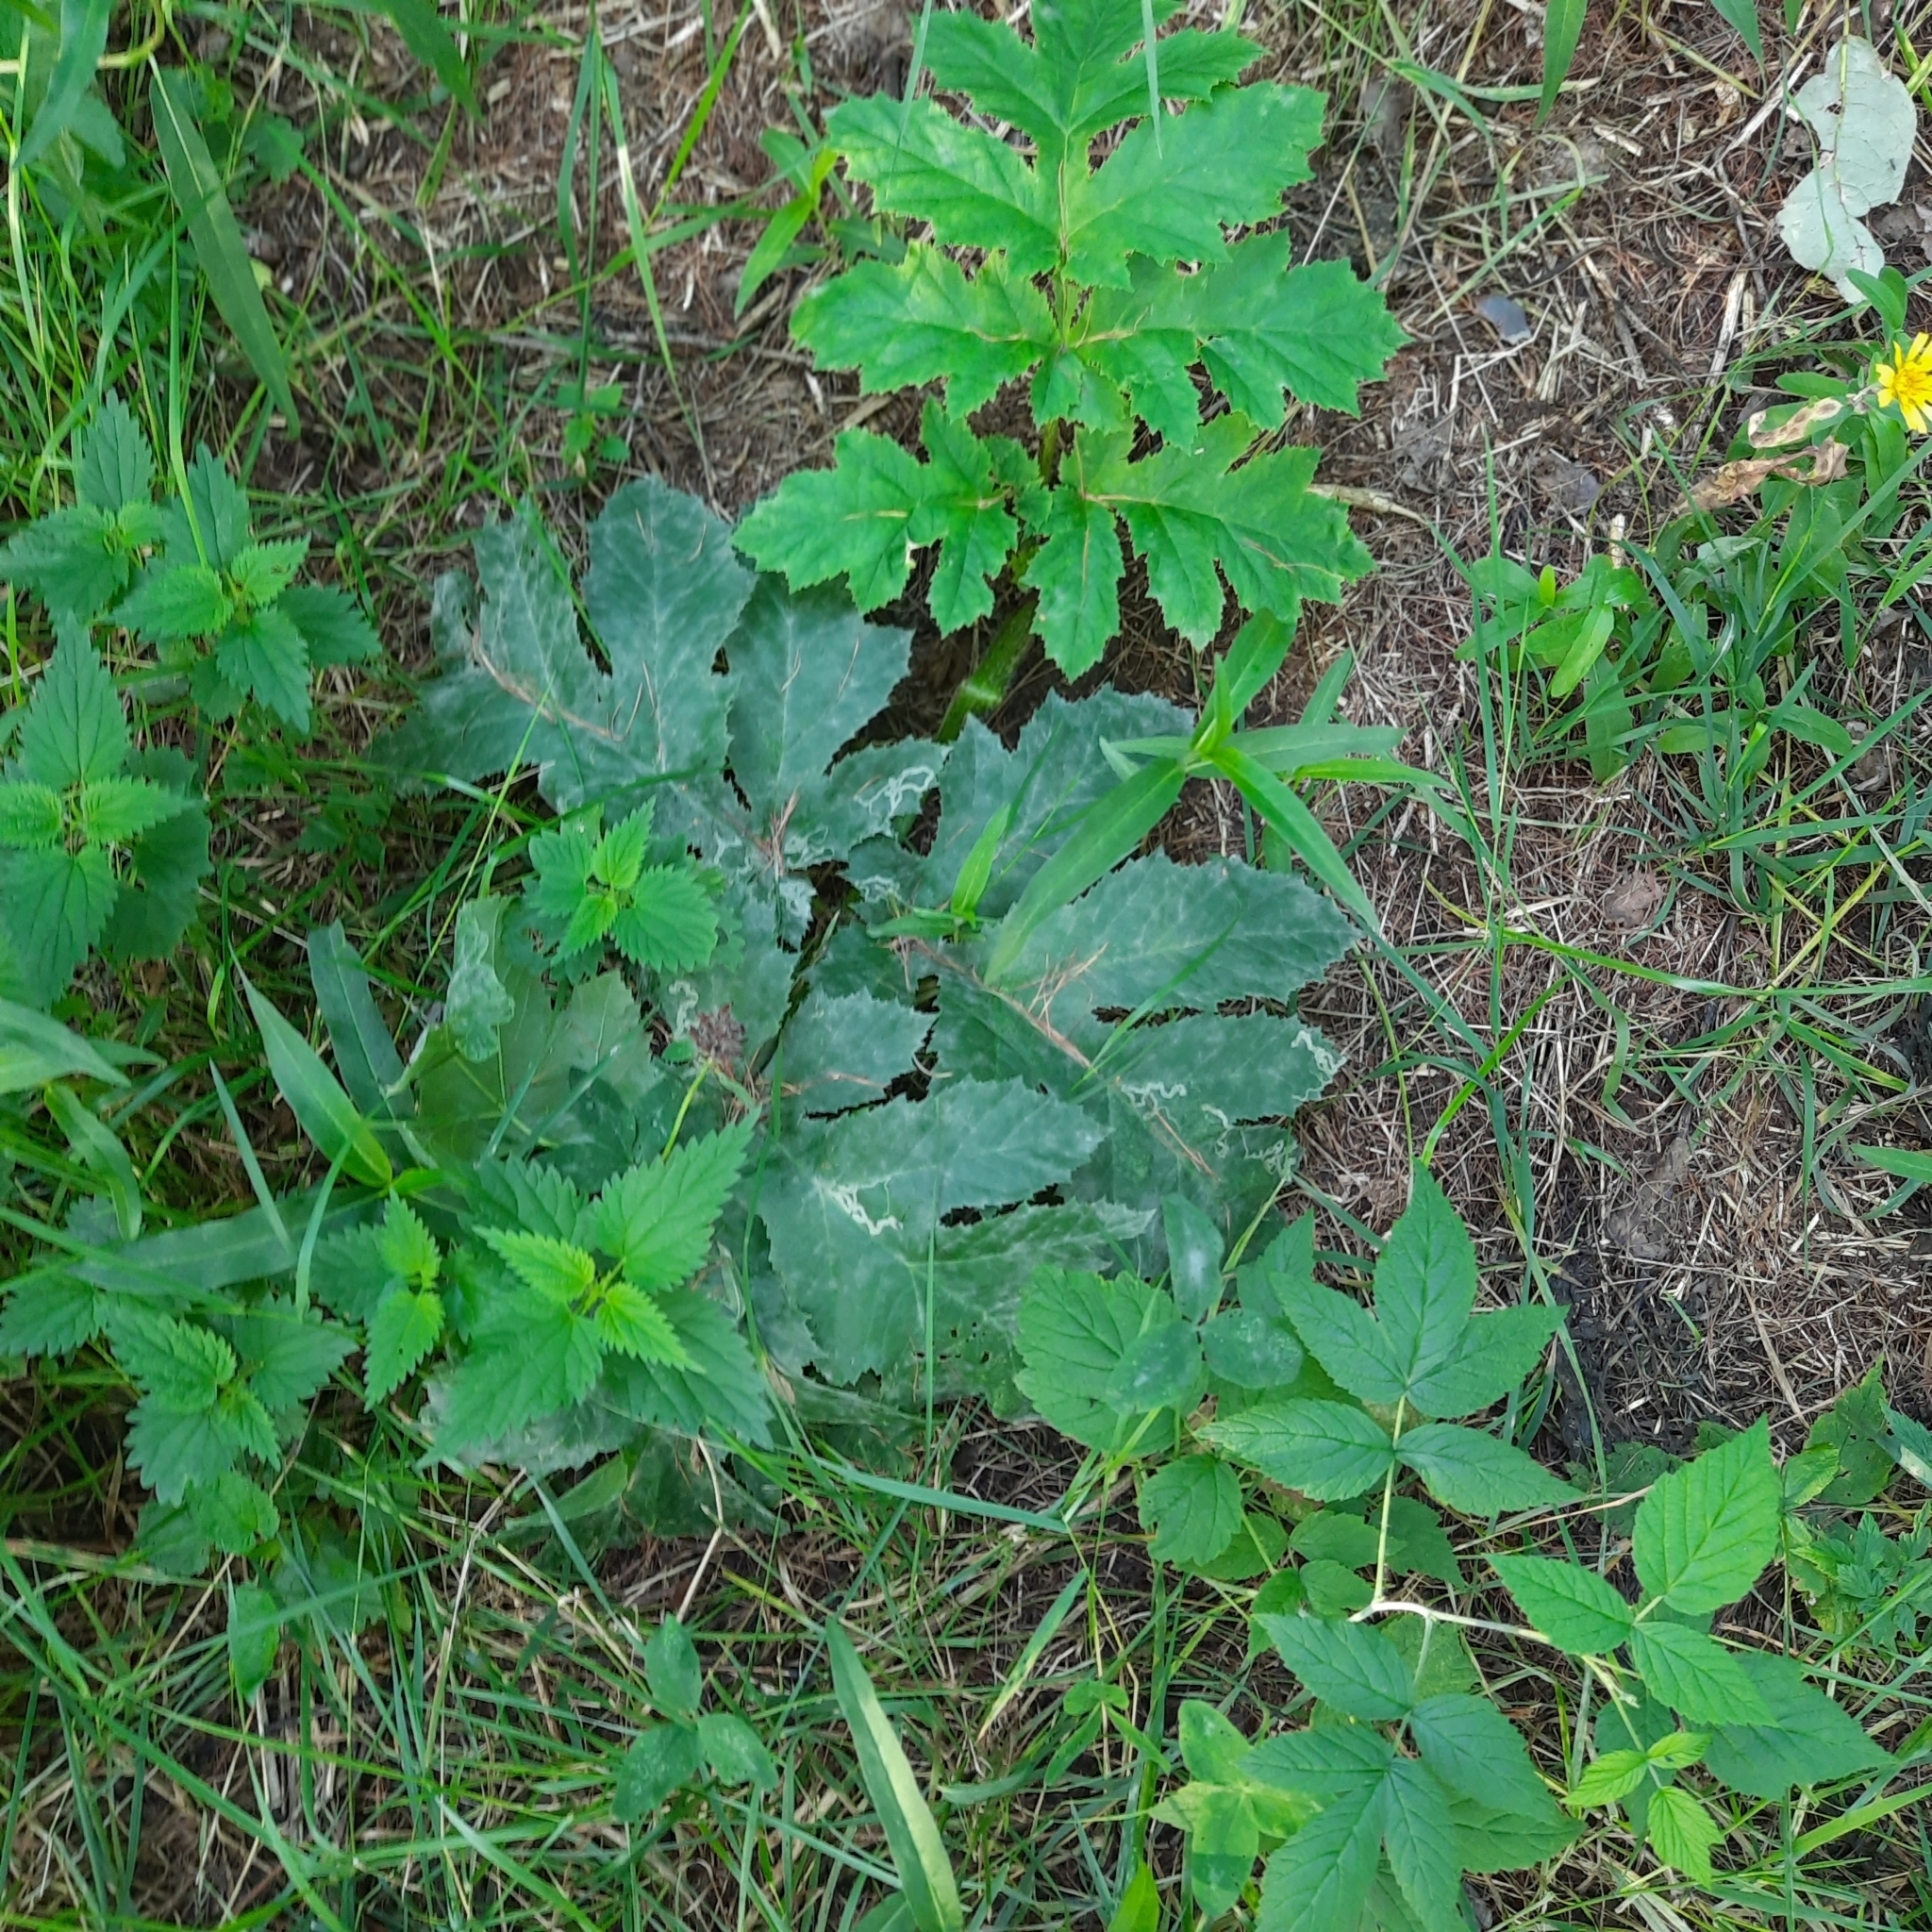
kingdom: Plantae
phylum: Tracheophyta
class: Magnoliopsida
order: Apiales
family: Apiaceae
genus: Heracleum
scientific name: Heracleum dissectum
